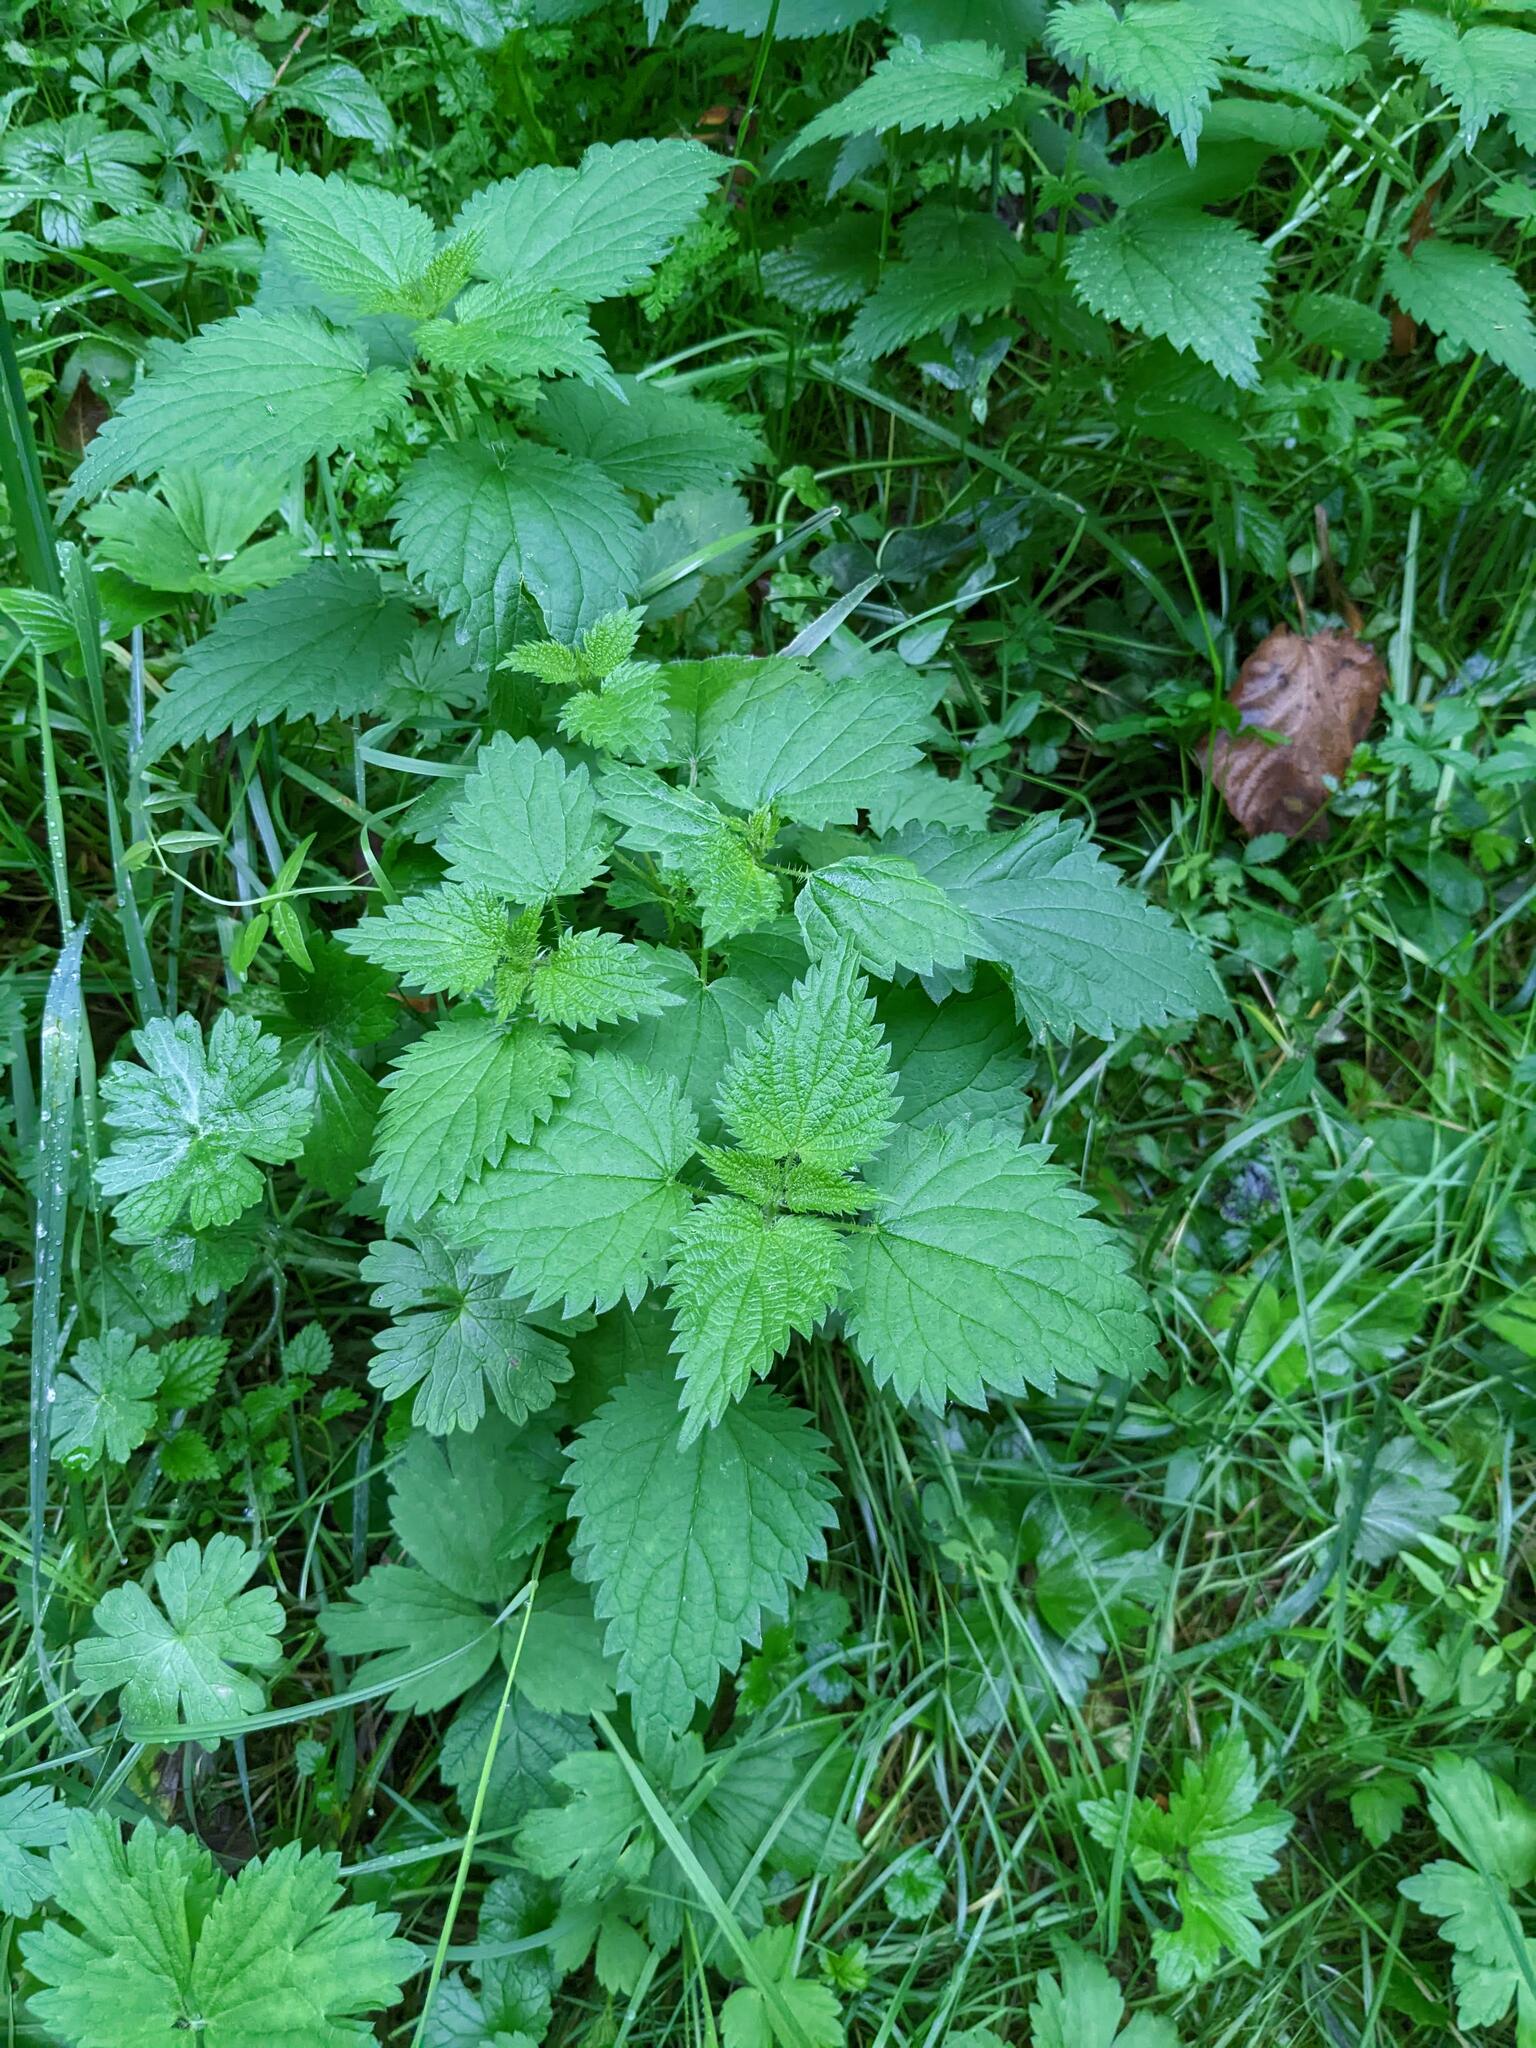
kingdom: Plantae
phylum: Tracheophyta
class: Magnoliopsida
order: Rosales
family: Urticaceae
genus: Urtica
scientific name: Urtica dioica
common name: Common nettle
